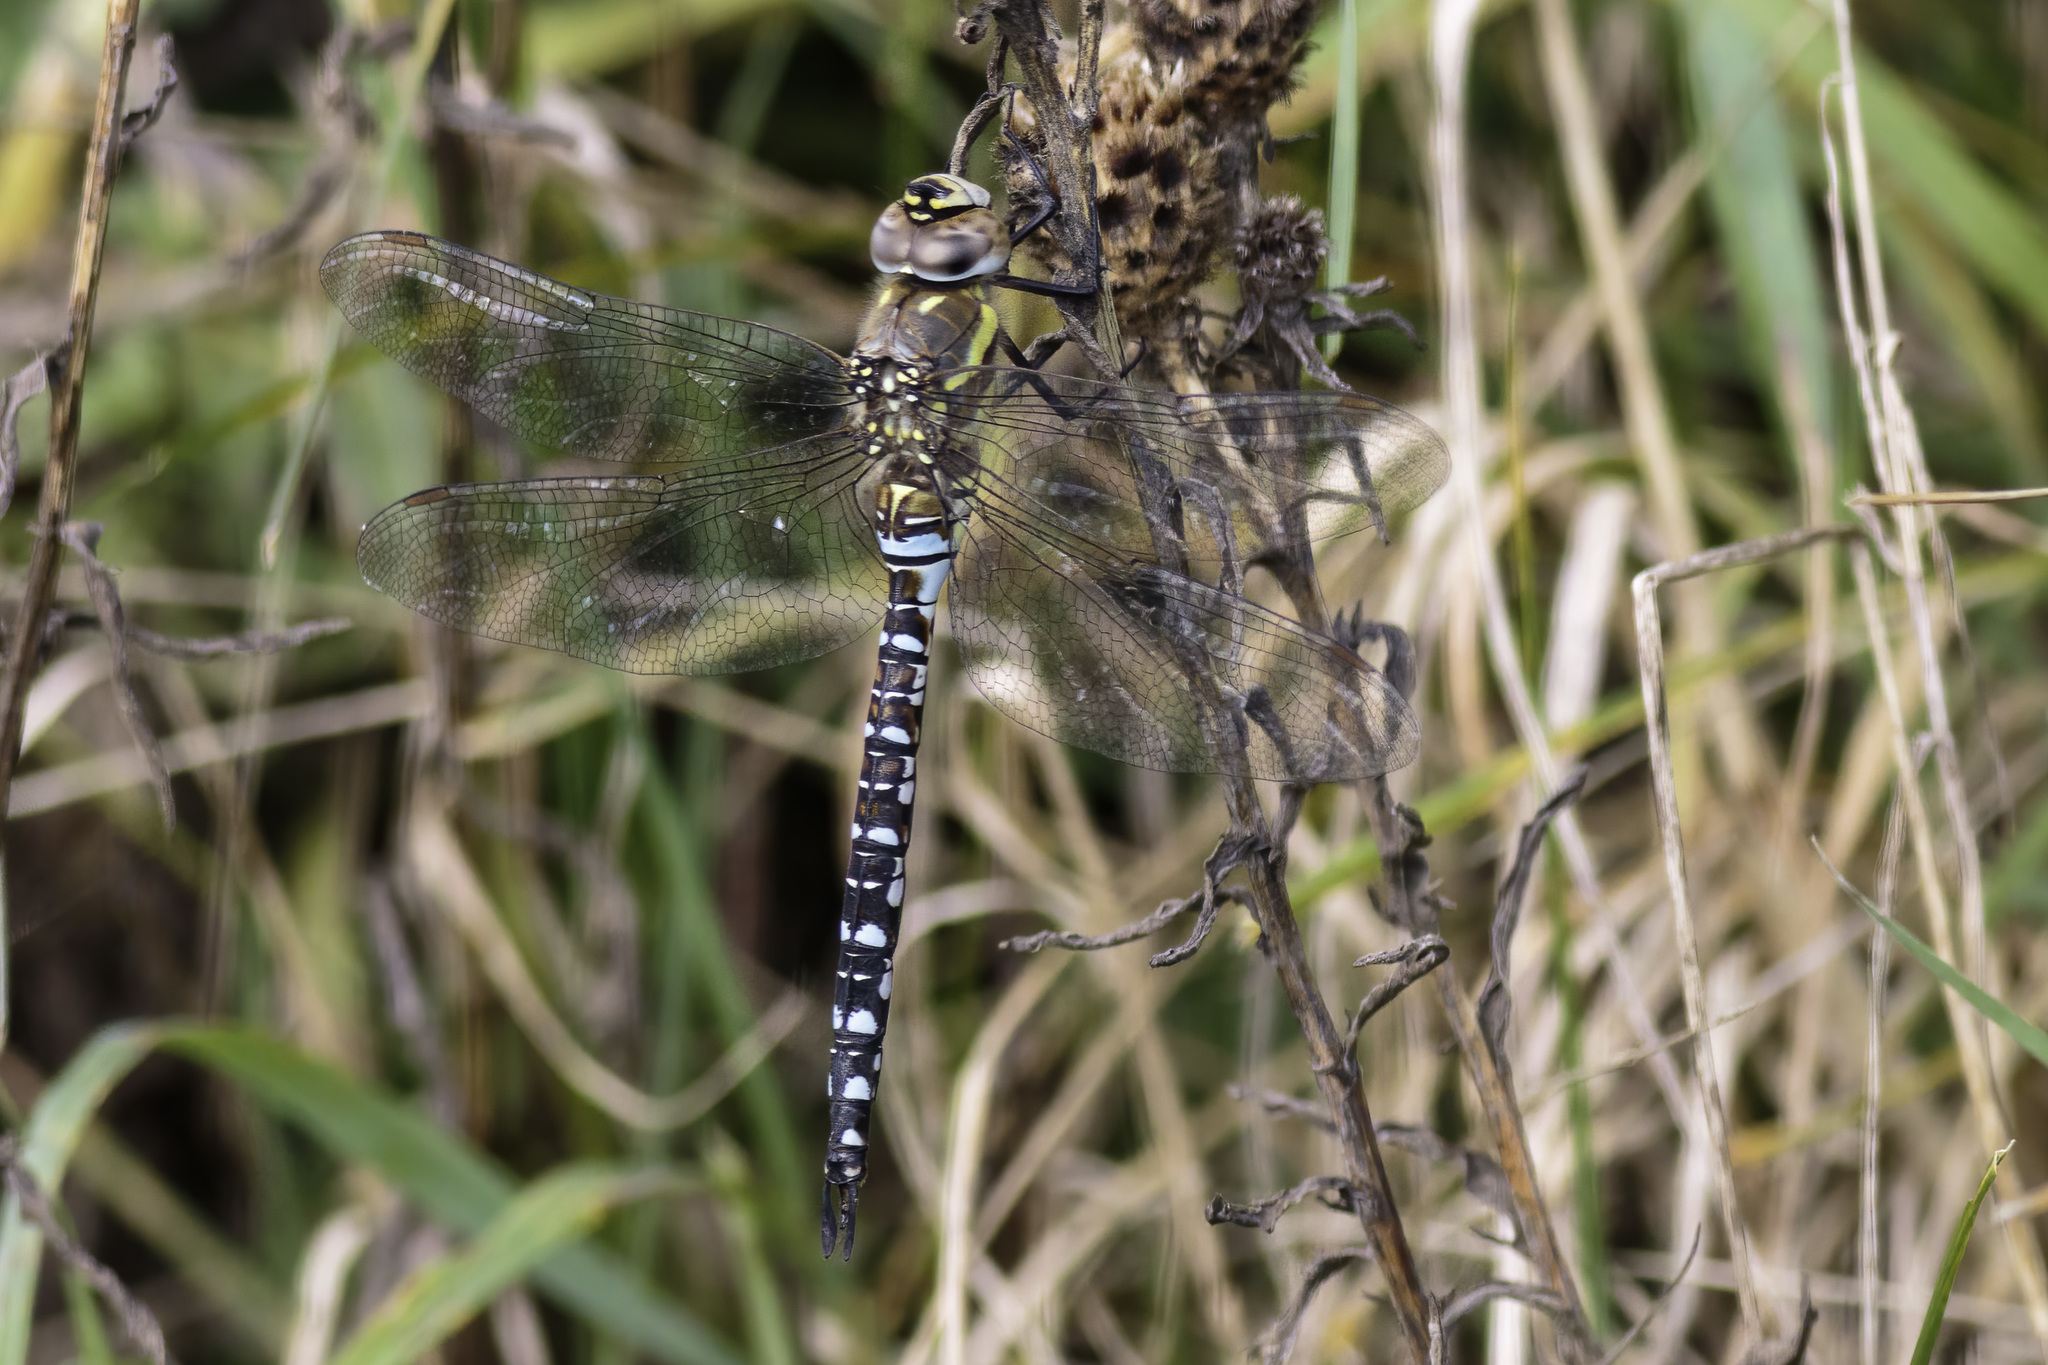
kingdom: Animalia
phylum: Arthropoda
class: Insecta
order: Odonata
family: Aeshnidae
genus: Aeshna
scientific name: Aeshna mixta
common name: Migrant hawker
